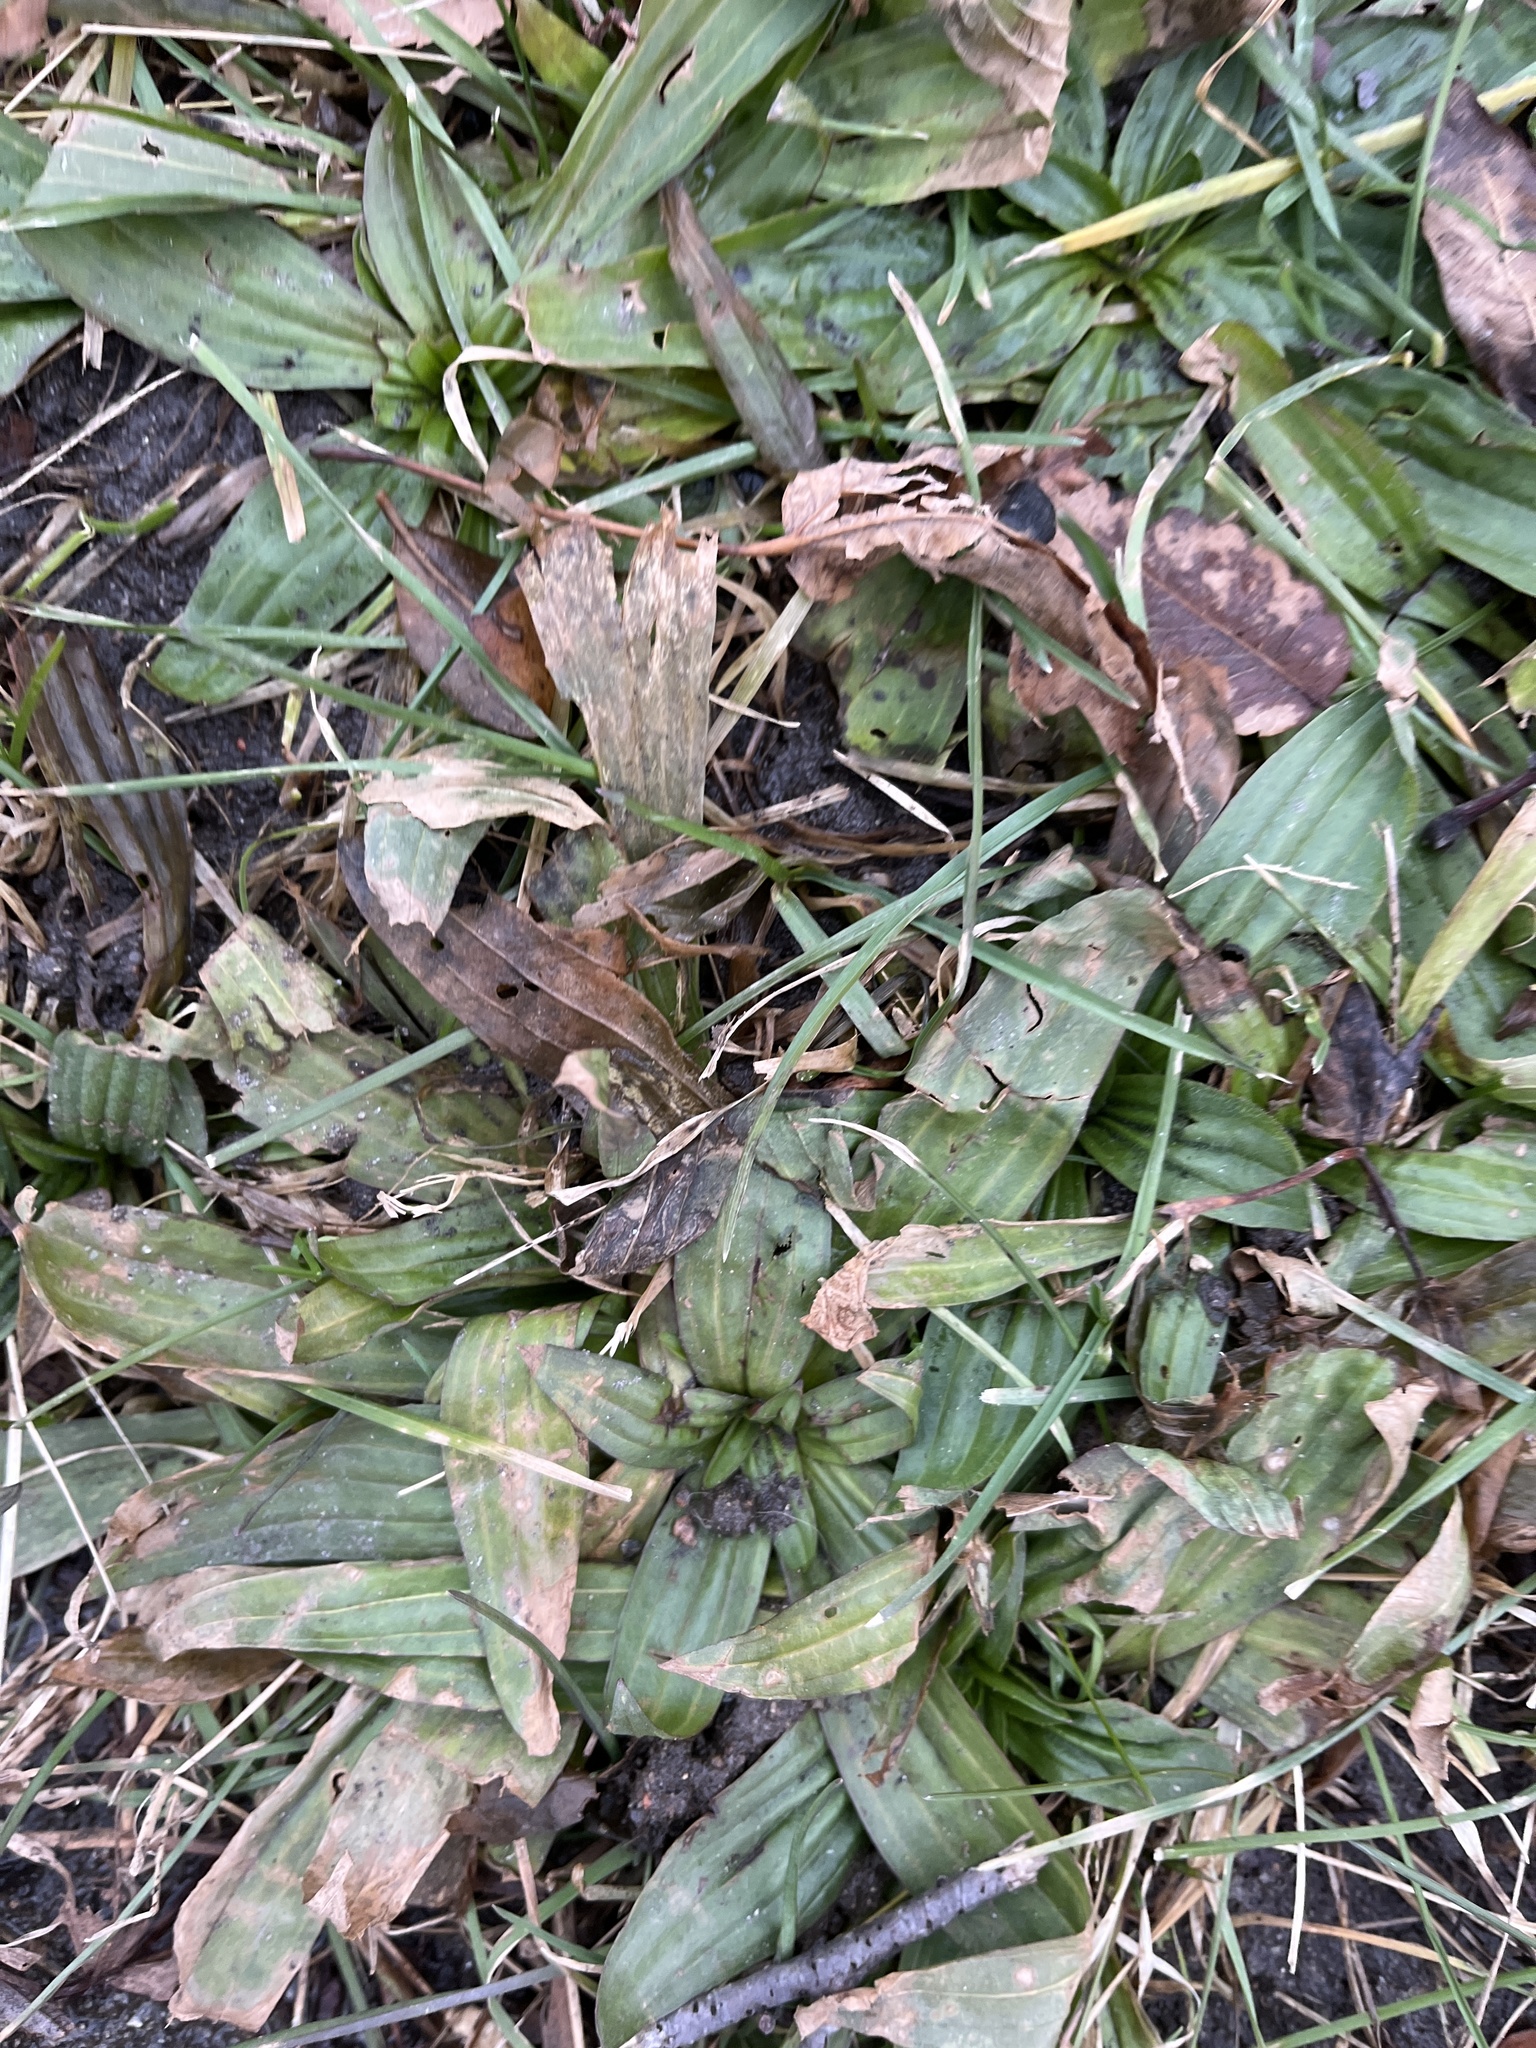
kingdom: Plantae
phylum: Tracheophyta
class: Magnoliopsida
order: Lamiales
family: Plantaginaceae
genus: Plantago
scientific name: Plantago lanceolata
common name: Ribwort plantain
